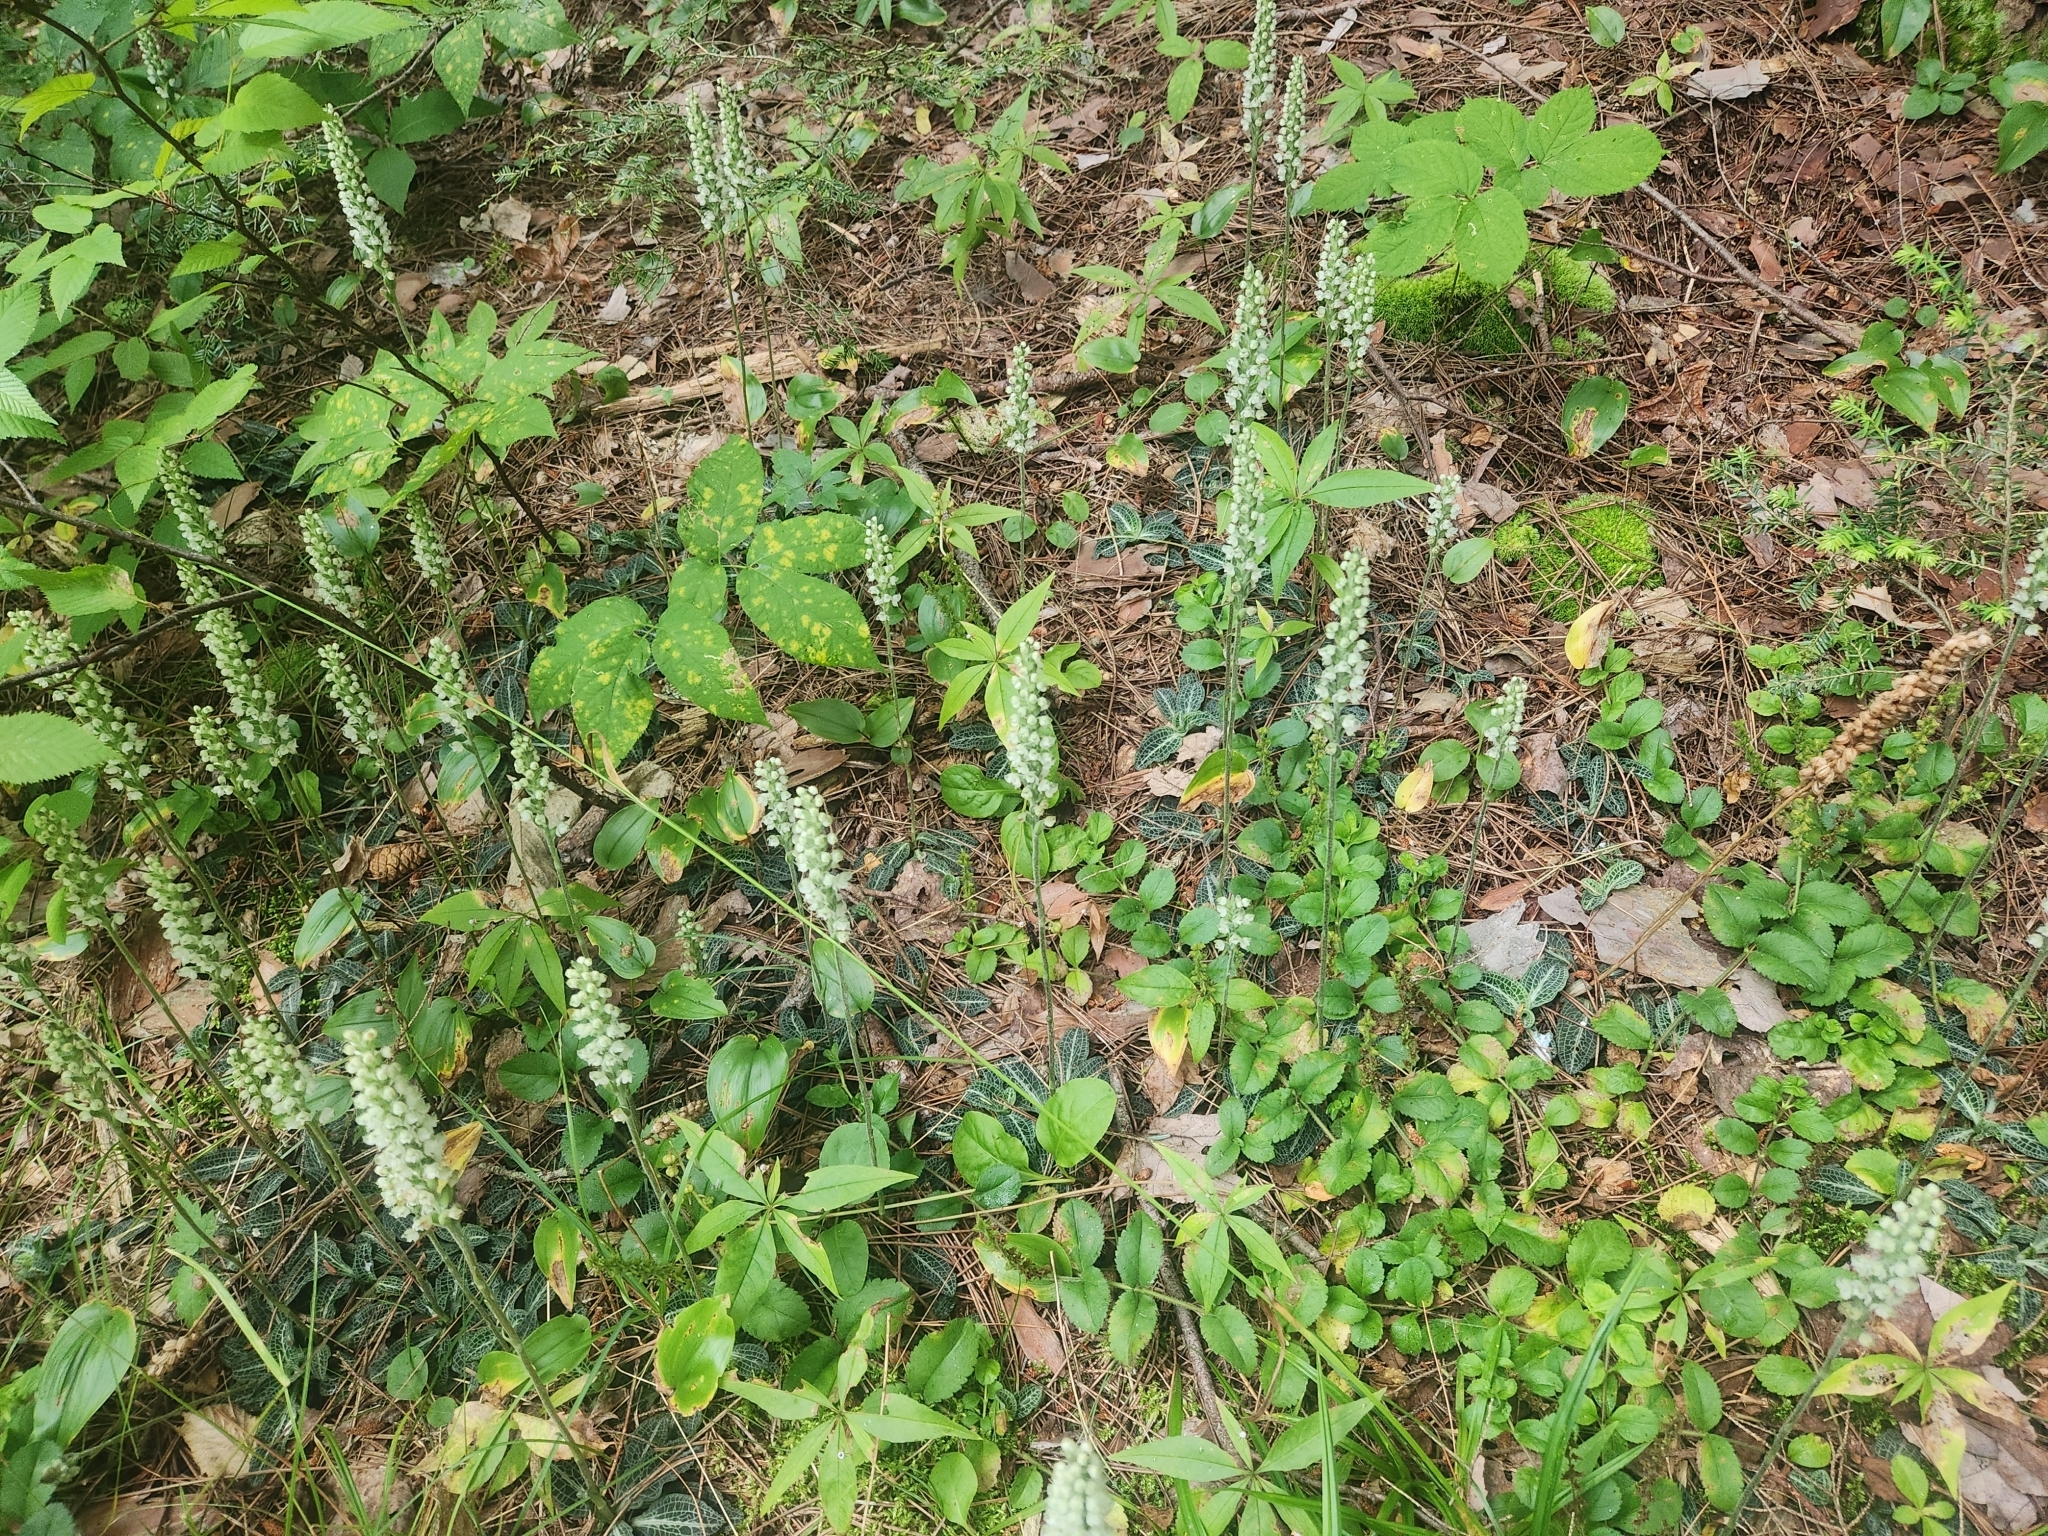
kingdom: Plantae
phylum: Tracheophyta
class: Liliopsida
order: Asparagales
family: Orchidaceae
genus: Goodyera
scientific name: Goodyera pubescens
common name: Downy rattlesnake-plantain
